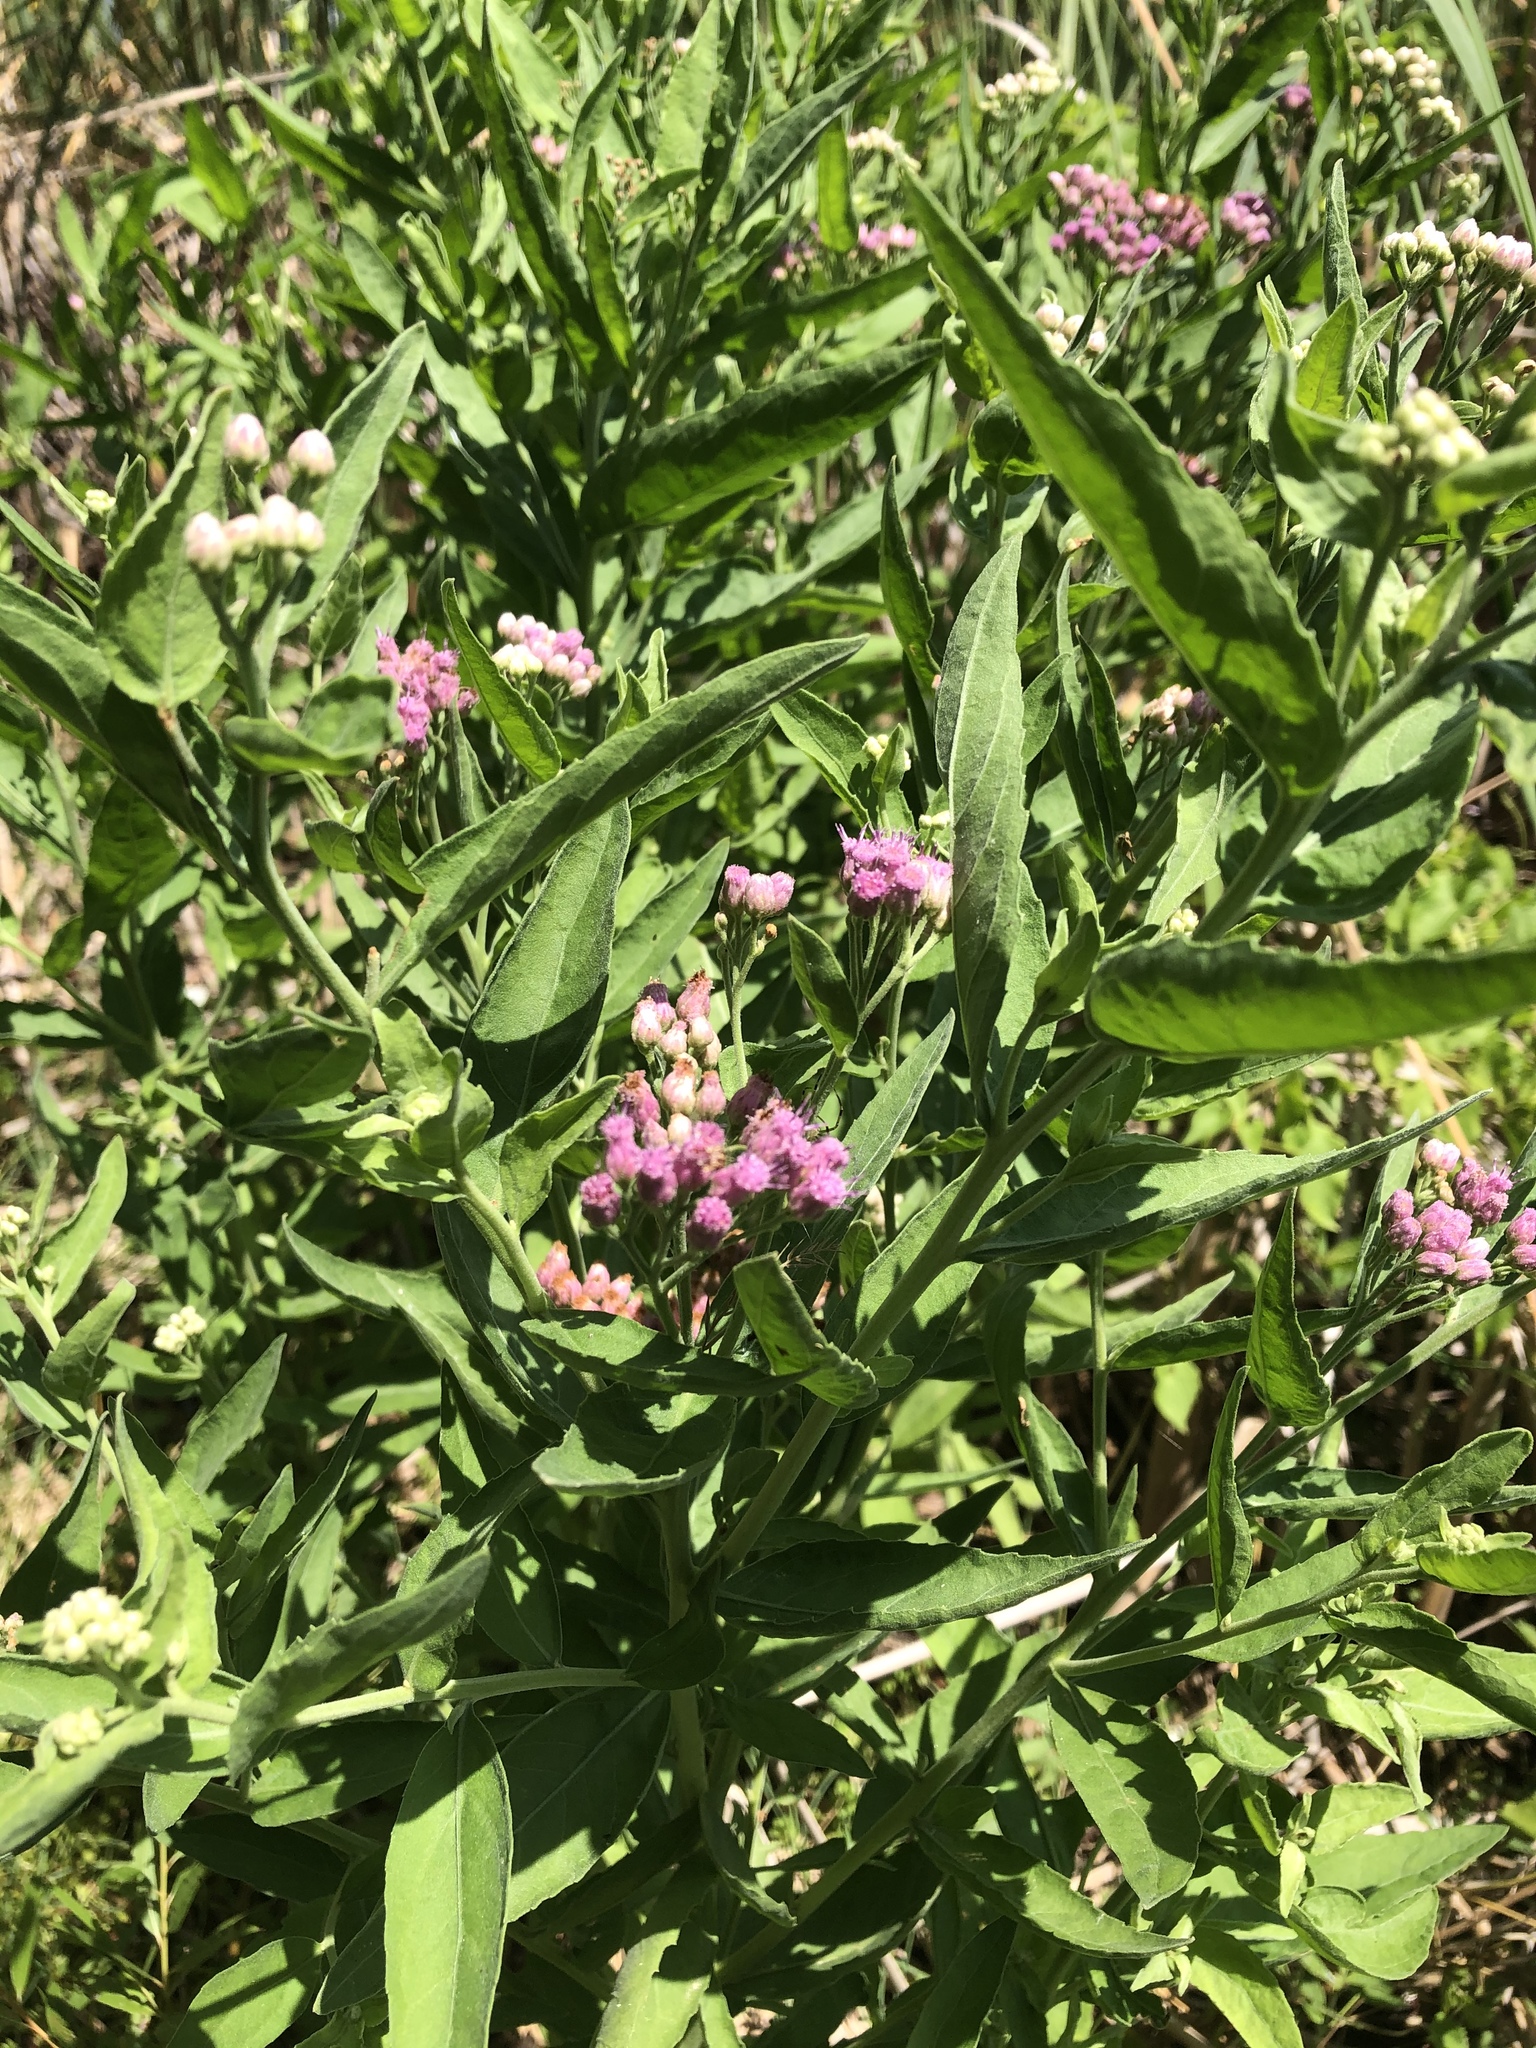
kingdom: Plantae
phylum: Tracheophyta
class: Magnoliopsida
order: Asterales
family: Asteraceae
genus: Pluchea
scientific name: Pluchea odorata
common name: Saltmarsh fleabane
